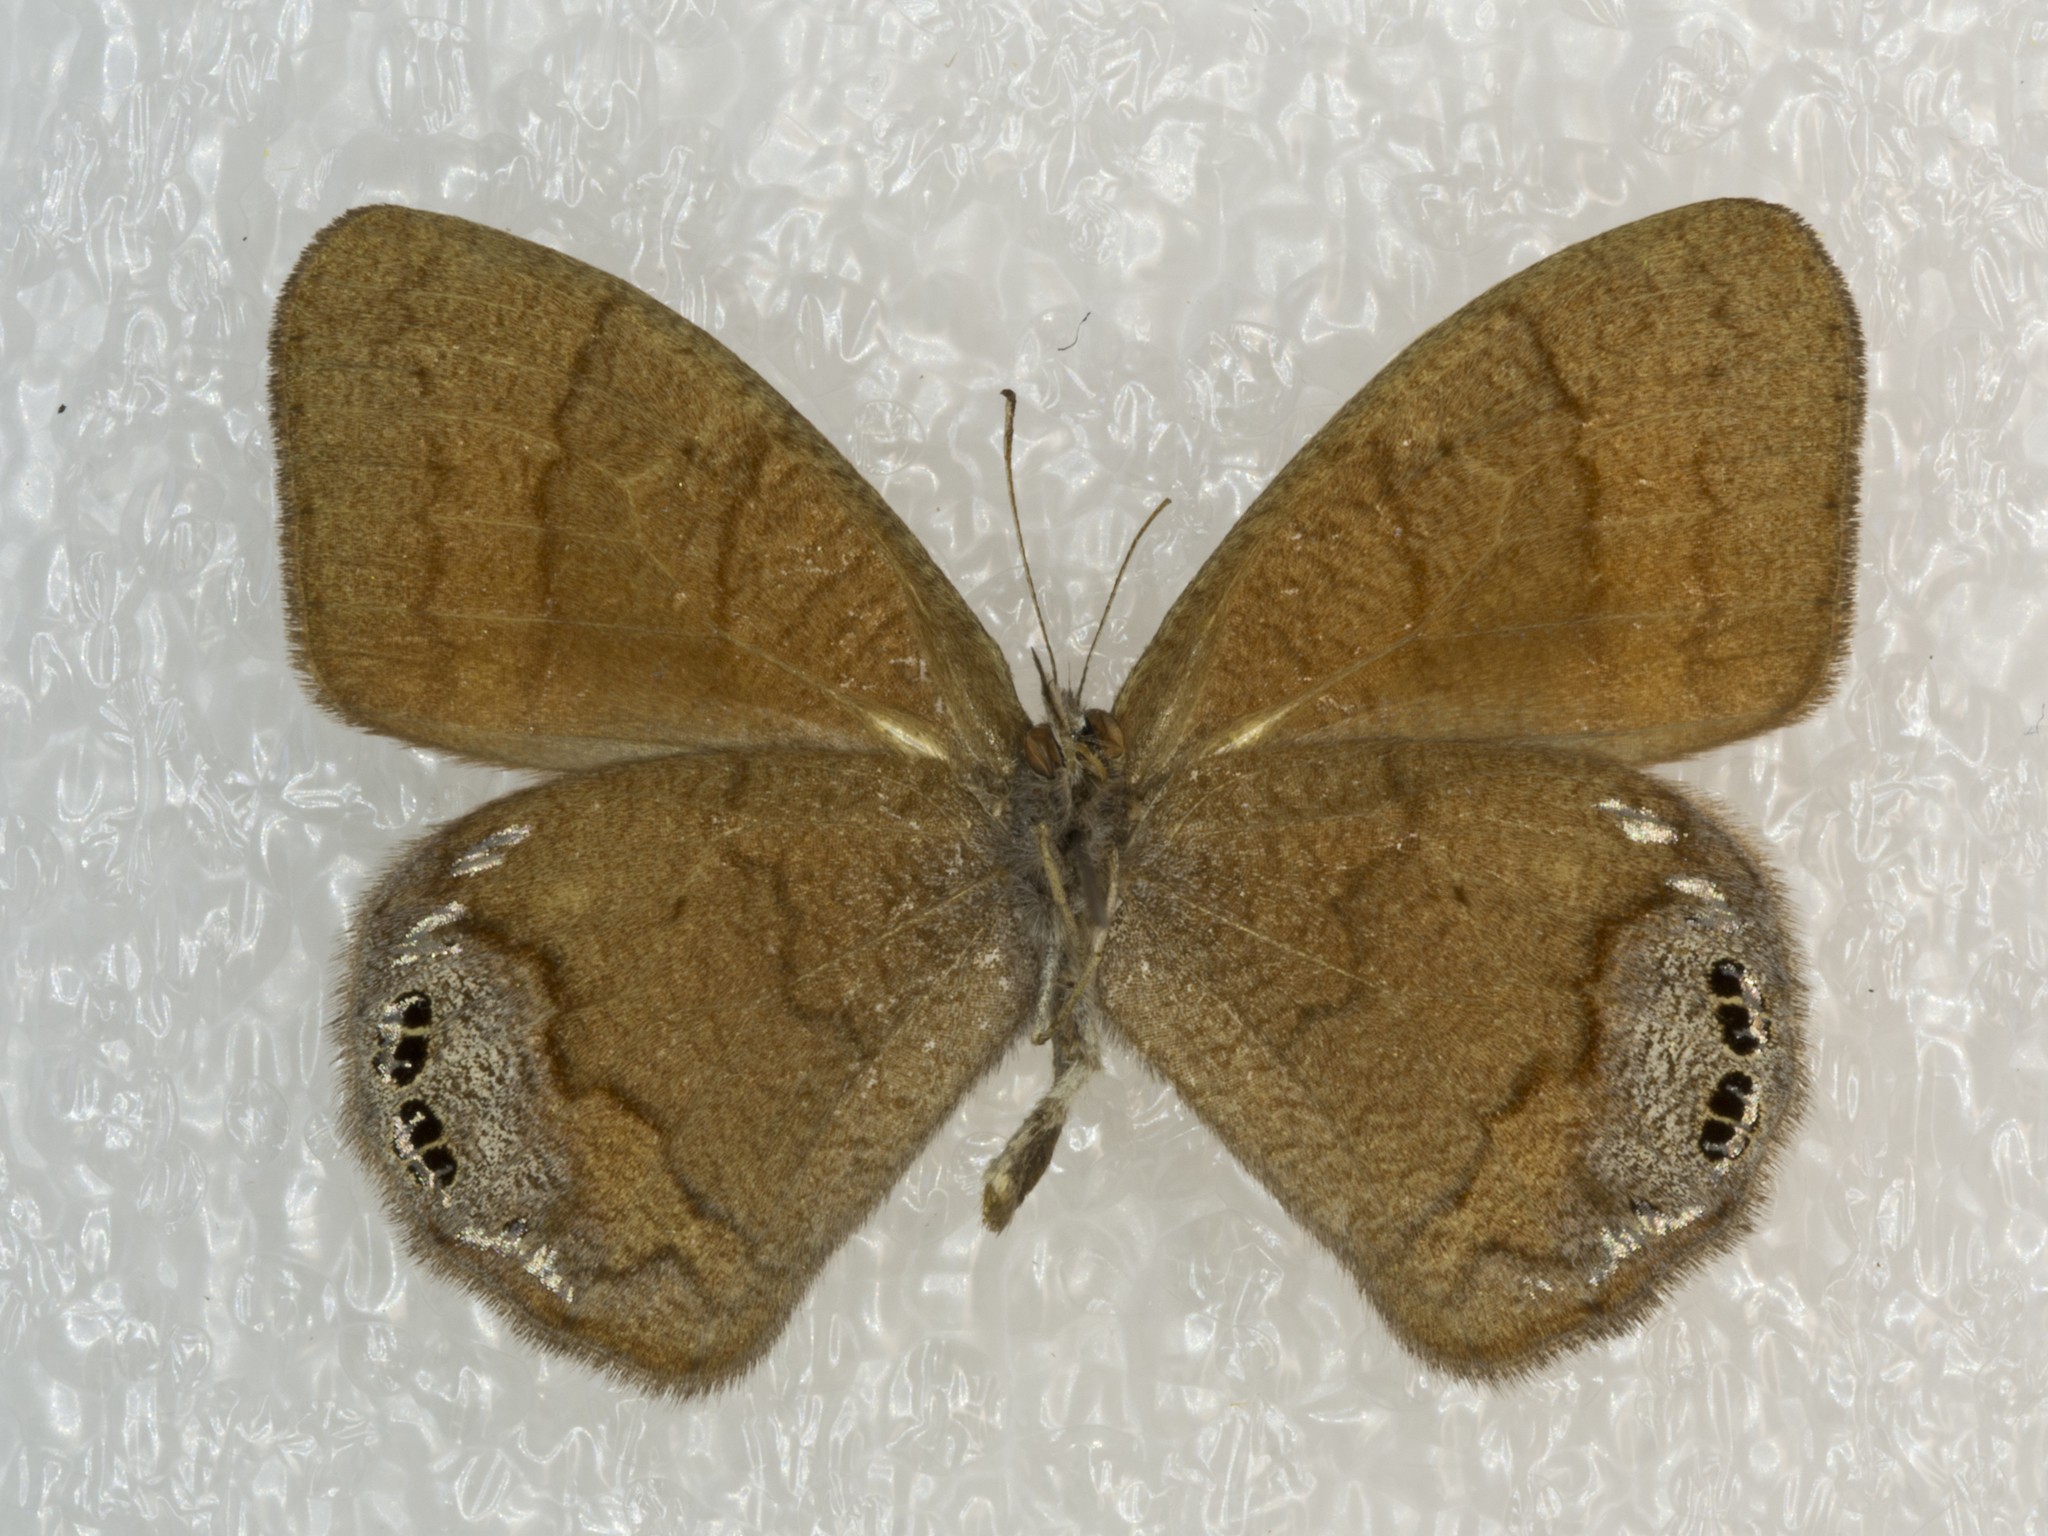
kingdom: Animalia
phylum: Arthropoda
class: Insecta
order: Lepidoptera
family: Nymphalidae
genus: Euptychia
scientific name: Euptychia dorothea
